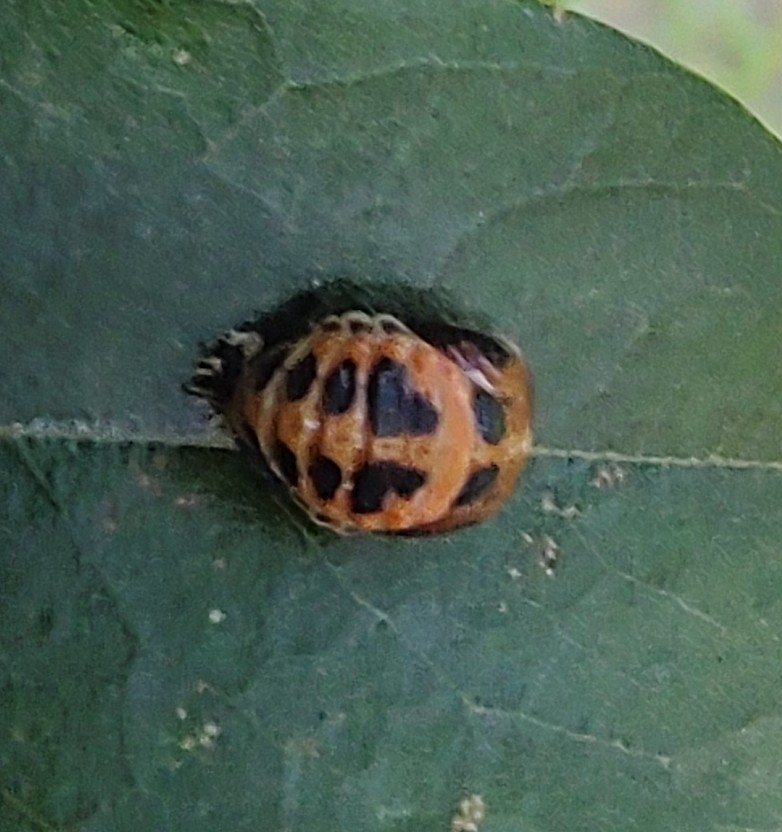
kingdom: Animalia
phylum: Arthropoda
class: Insecta
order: Coleoptera
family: Coccinellidae
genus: Harmonia
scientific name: Harmonia axyridis
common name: Harlequin ladybird
